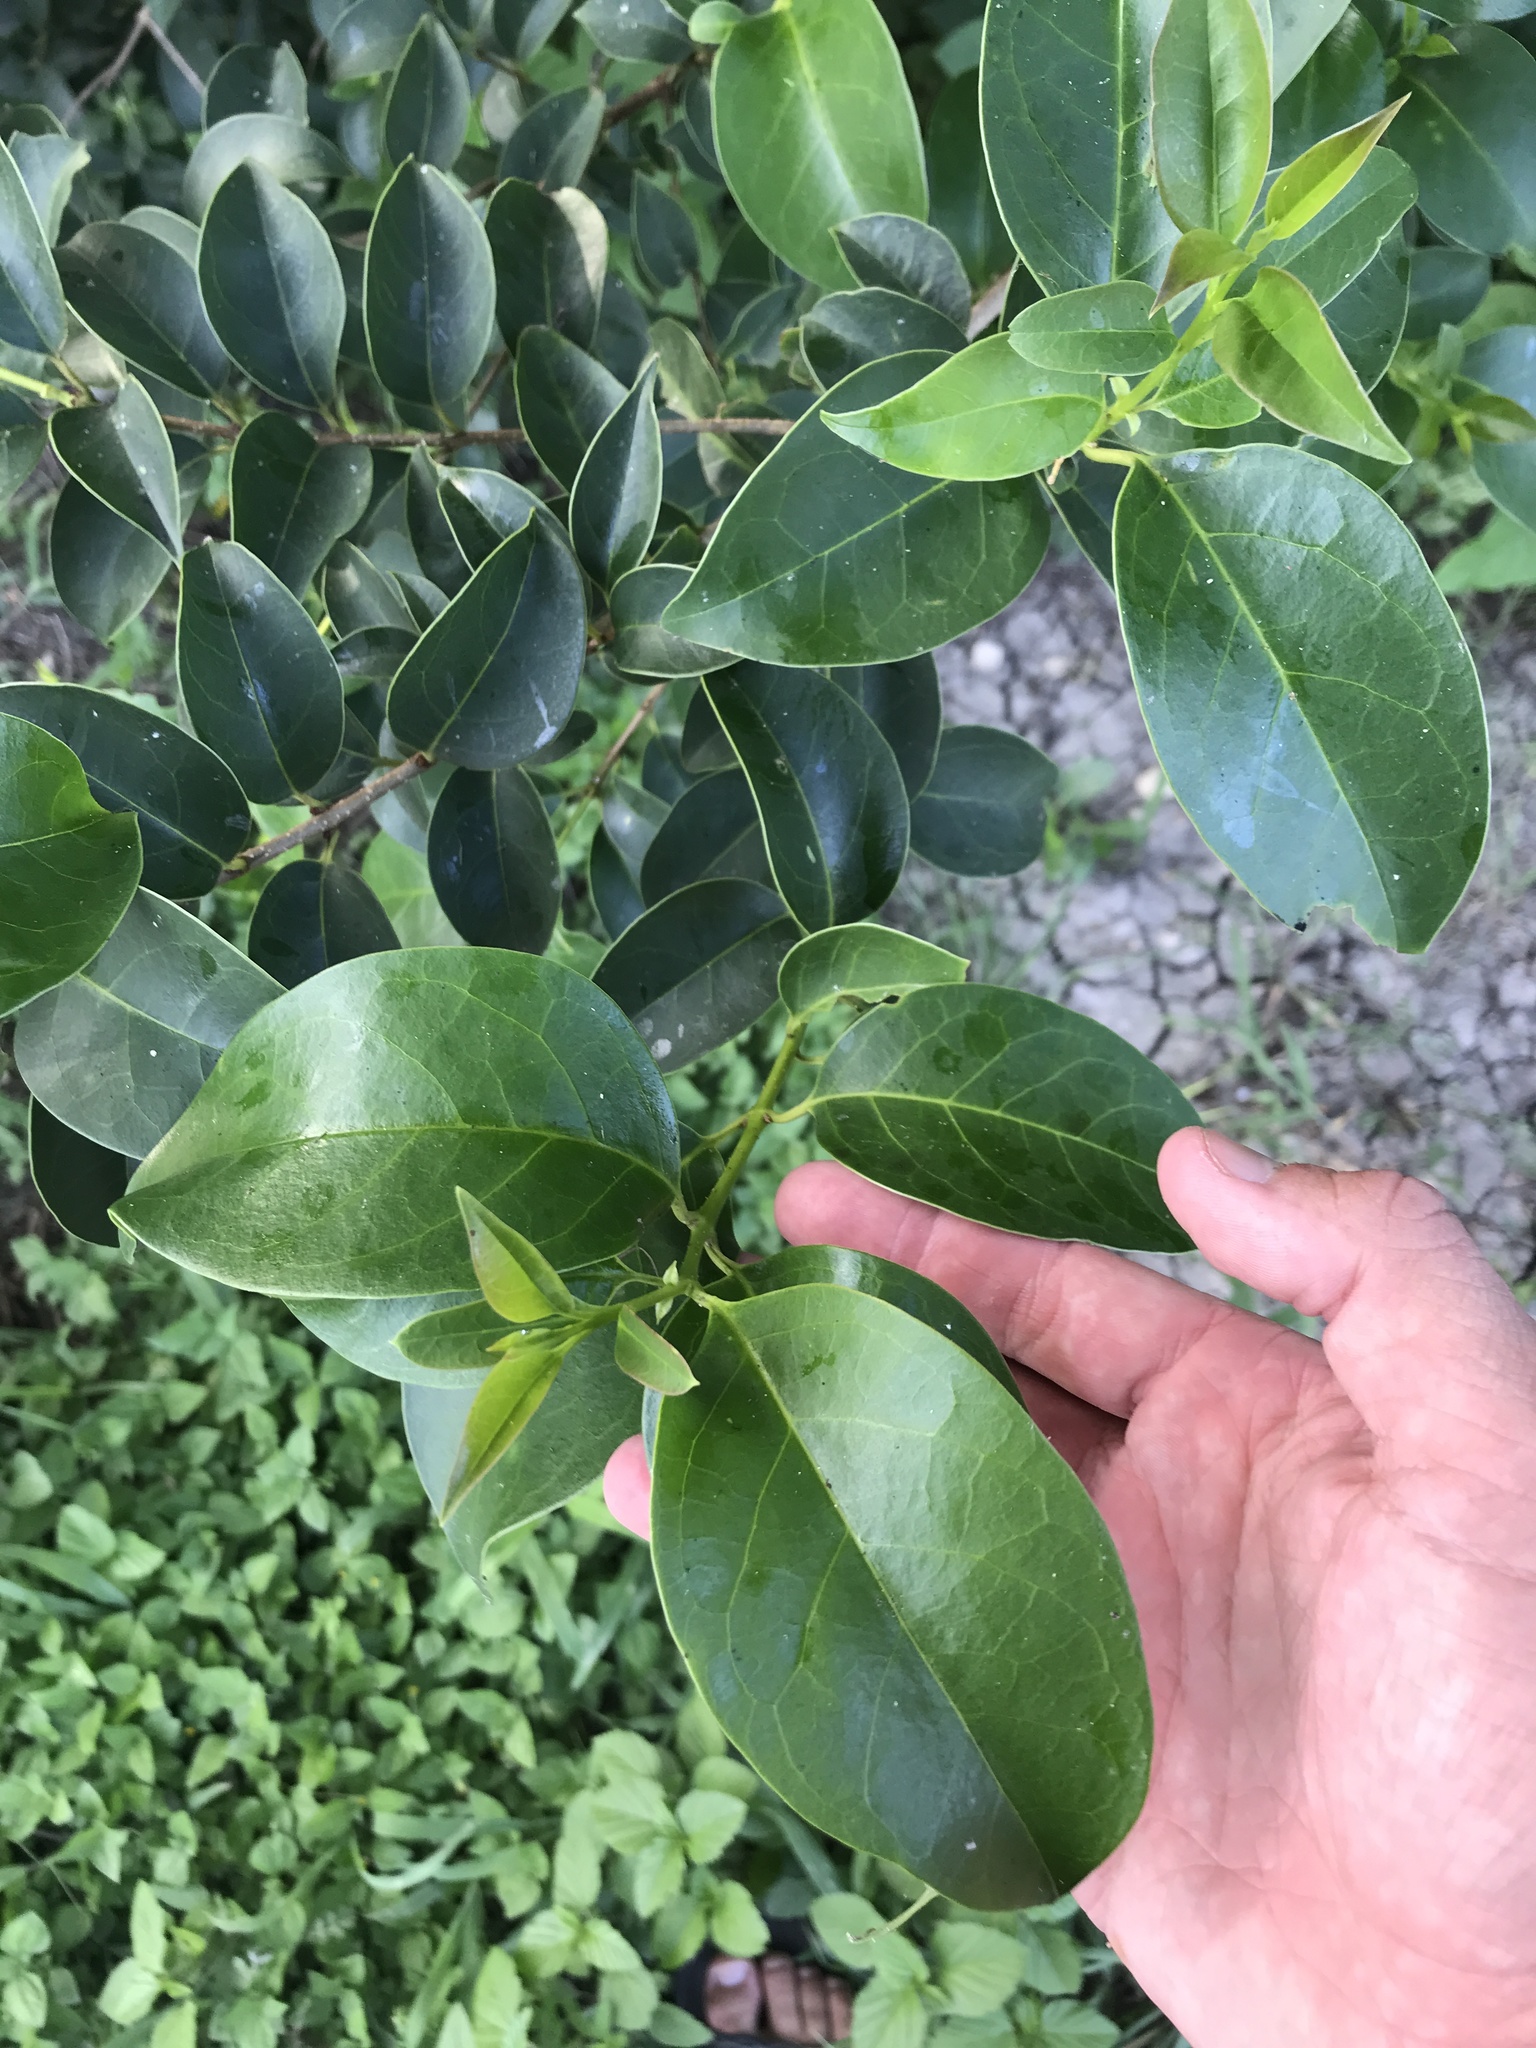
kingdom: Plantae
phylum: Tracheophyta
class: Magnoliopsida
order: Lamiales
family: Oleaceae
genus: Ligustrum
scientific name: Ligustrum lucidum
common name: Glossy privet
